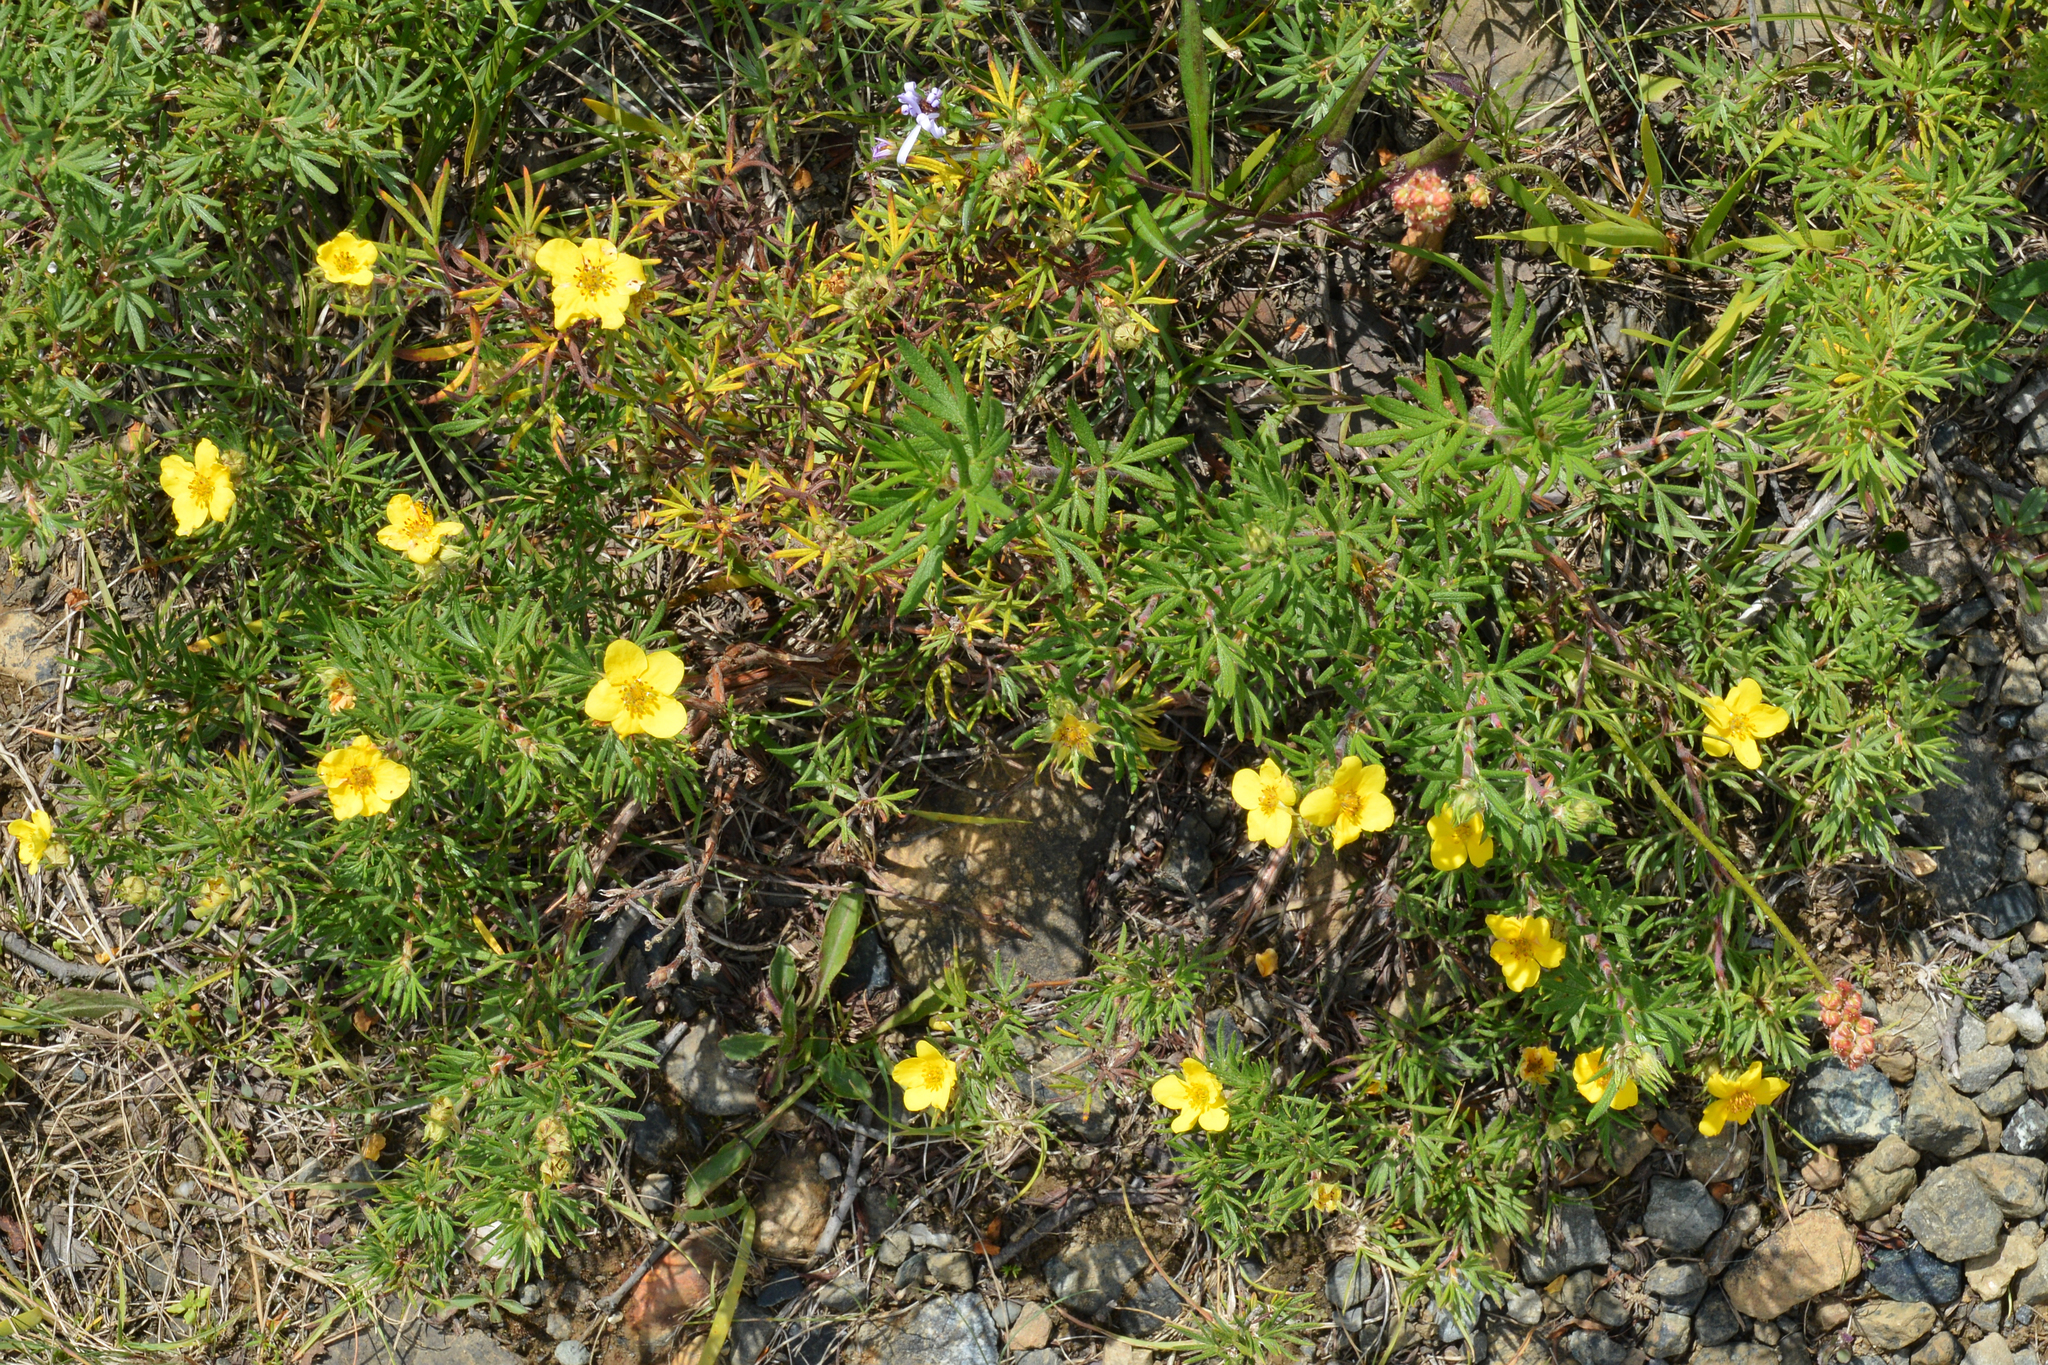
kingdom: Plantae
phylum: Tracheophyta
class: Magnoliopsida
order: Rosales
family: Rosaceae
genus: Dasiphora
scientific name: Dasiphora fruticosa
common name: Shrubby cinquefoil
